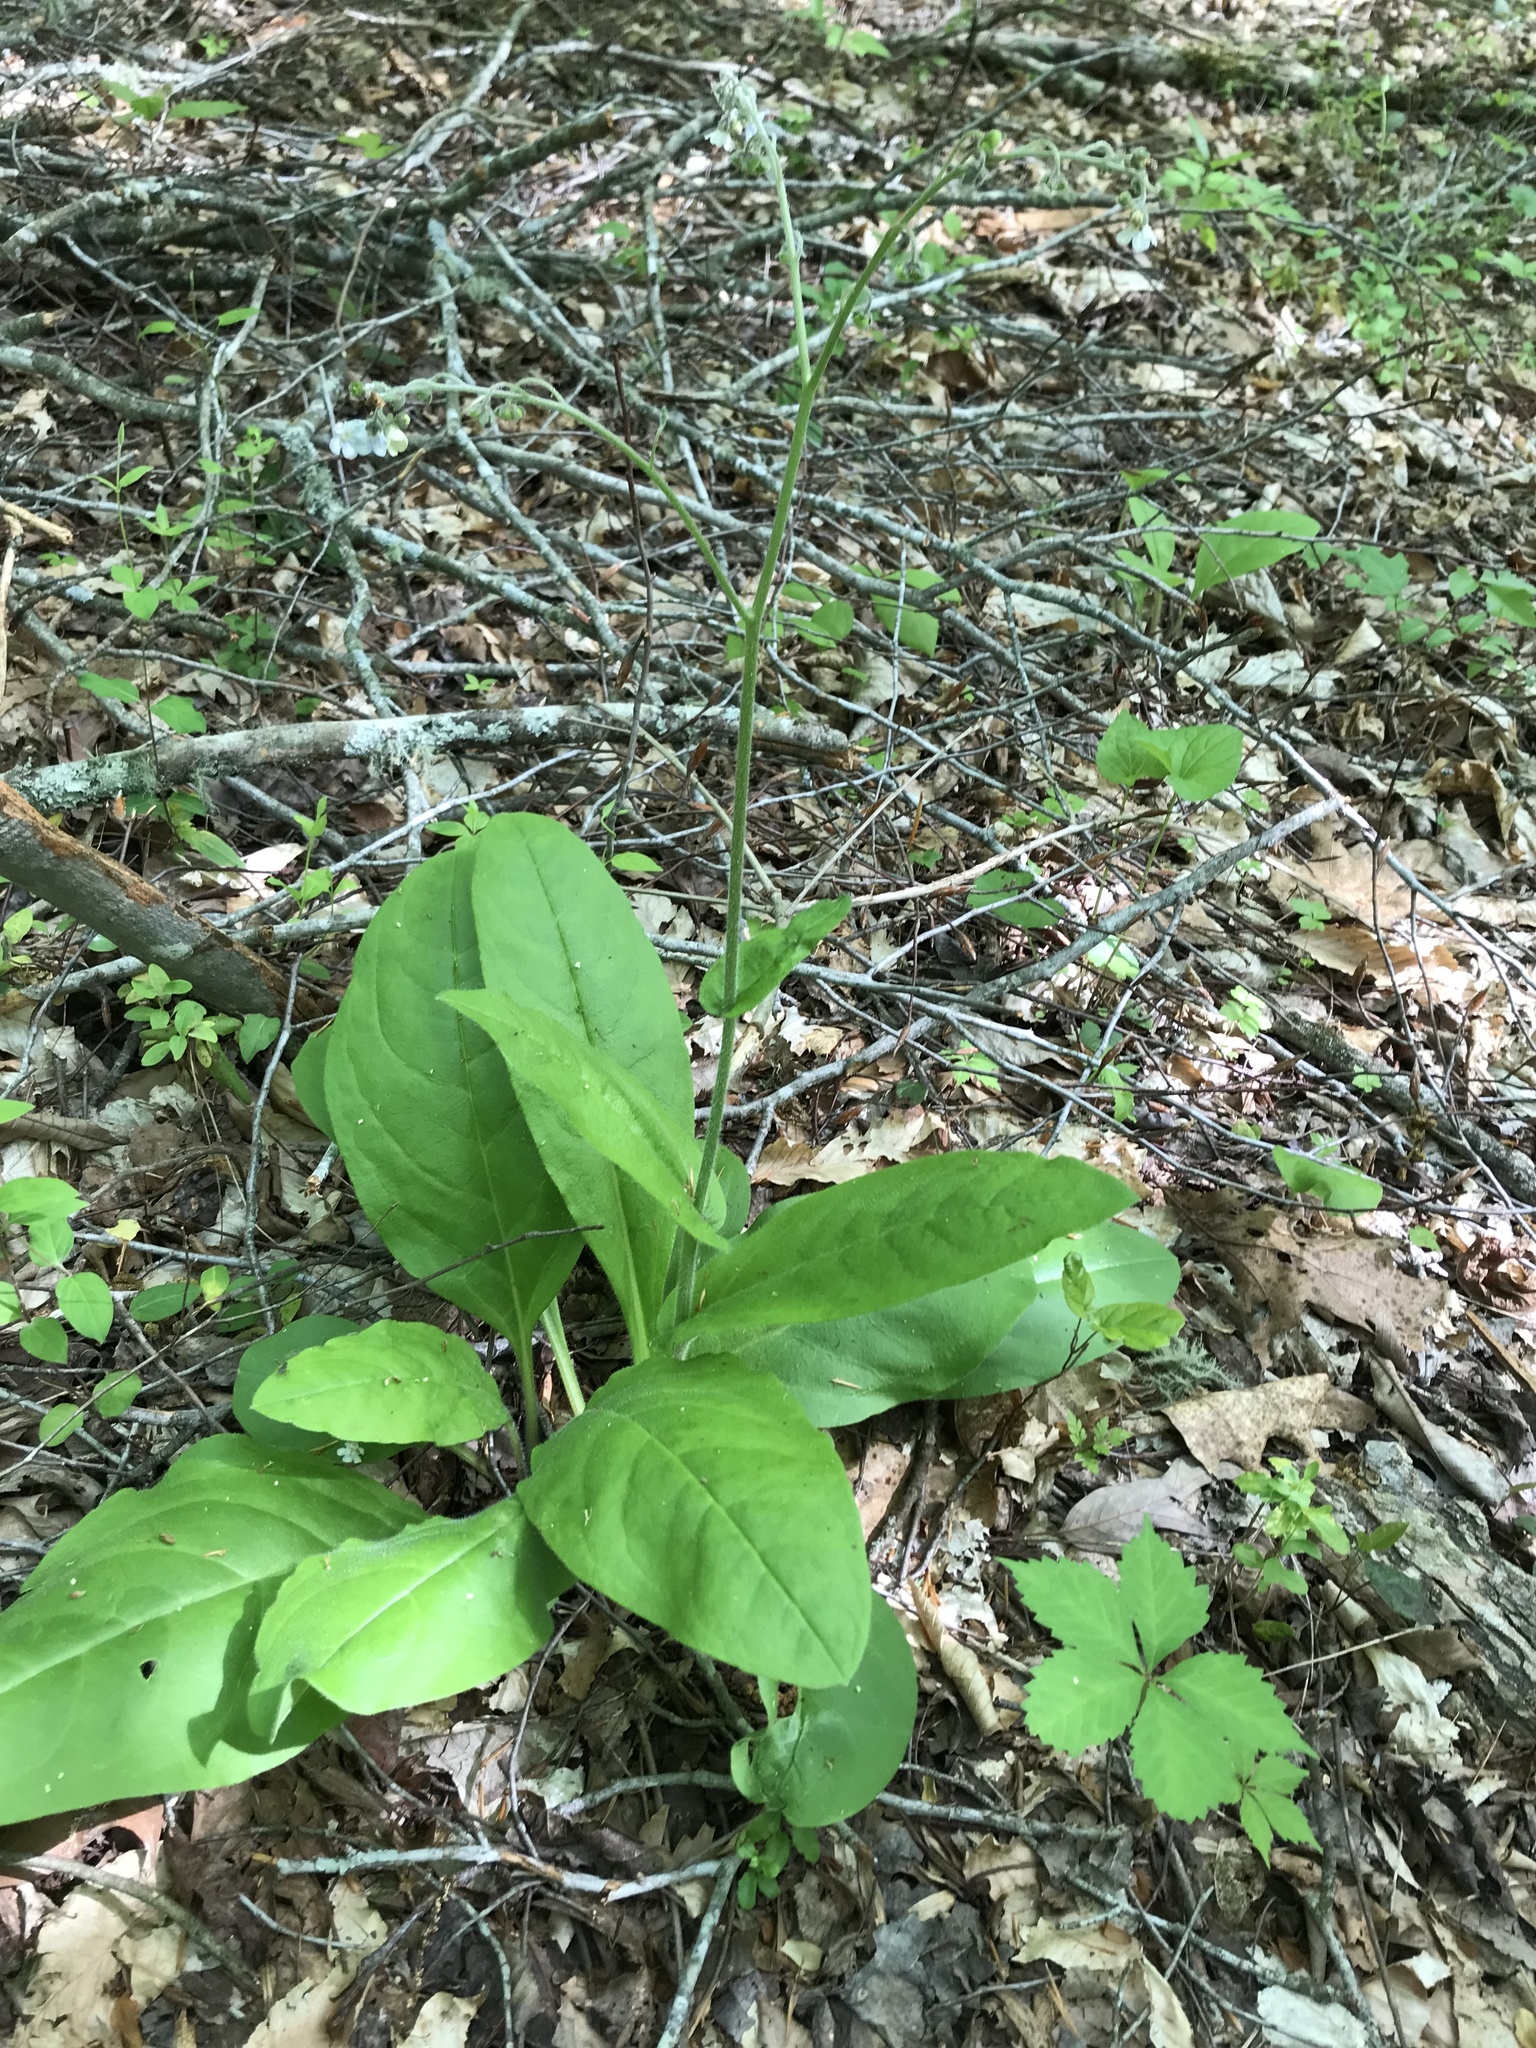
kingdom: Plantae
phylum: Tracheophyta
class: Magnoliopsida
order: Boraginales
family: Boraginaceae
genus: Andersonglossum
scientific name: Andersonglossum virginianum
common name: Wild comfrey
